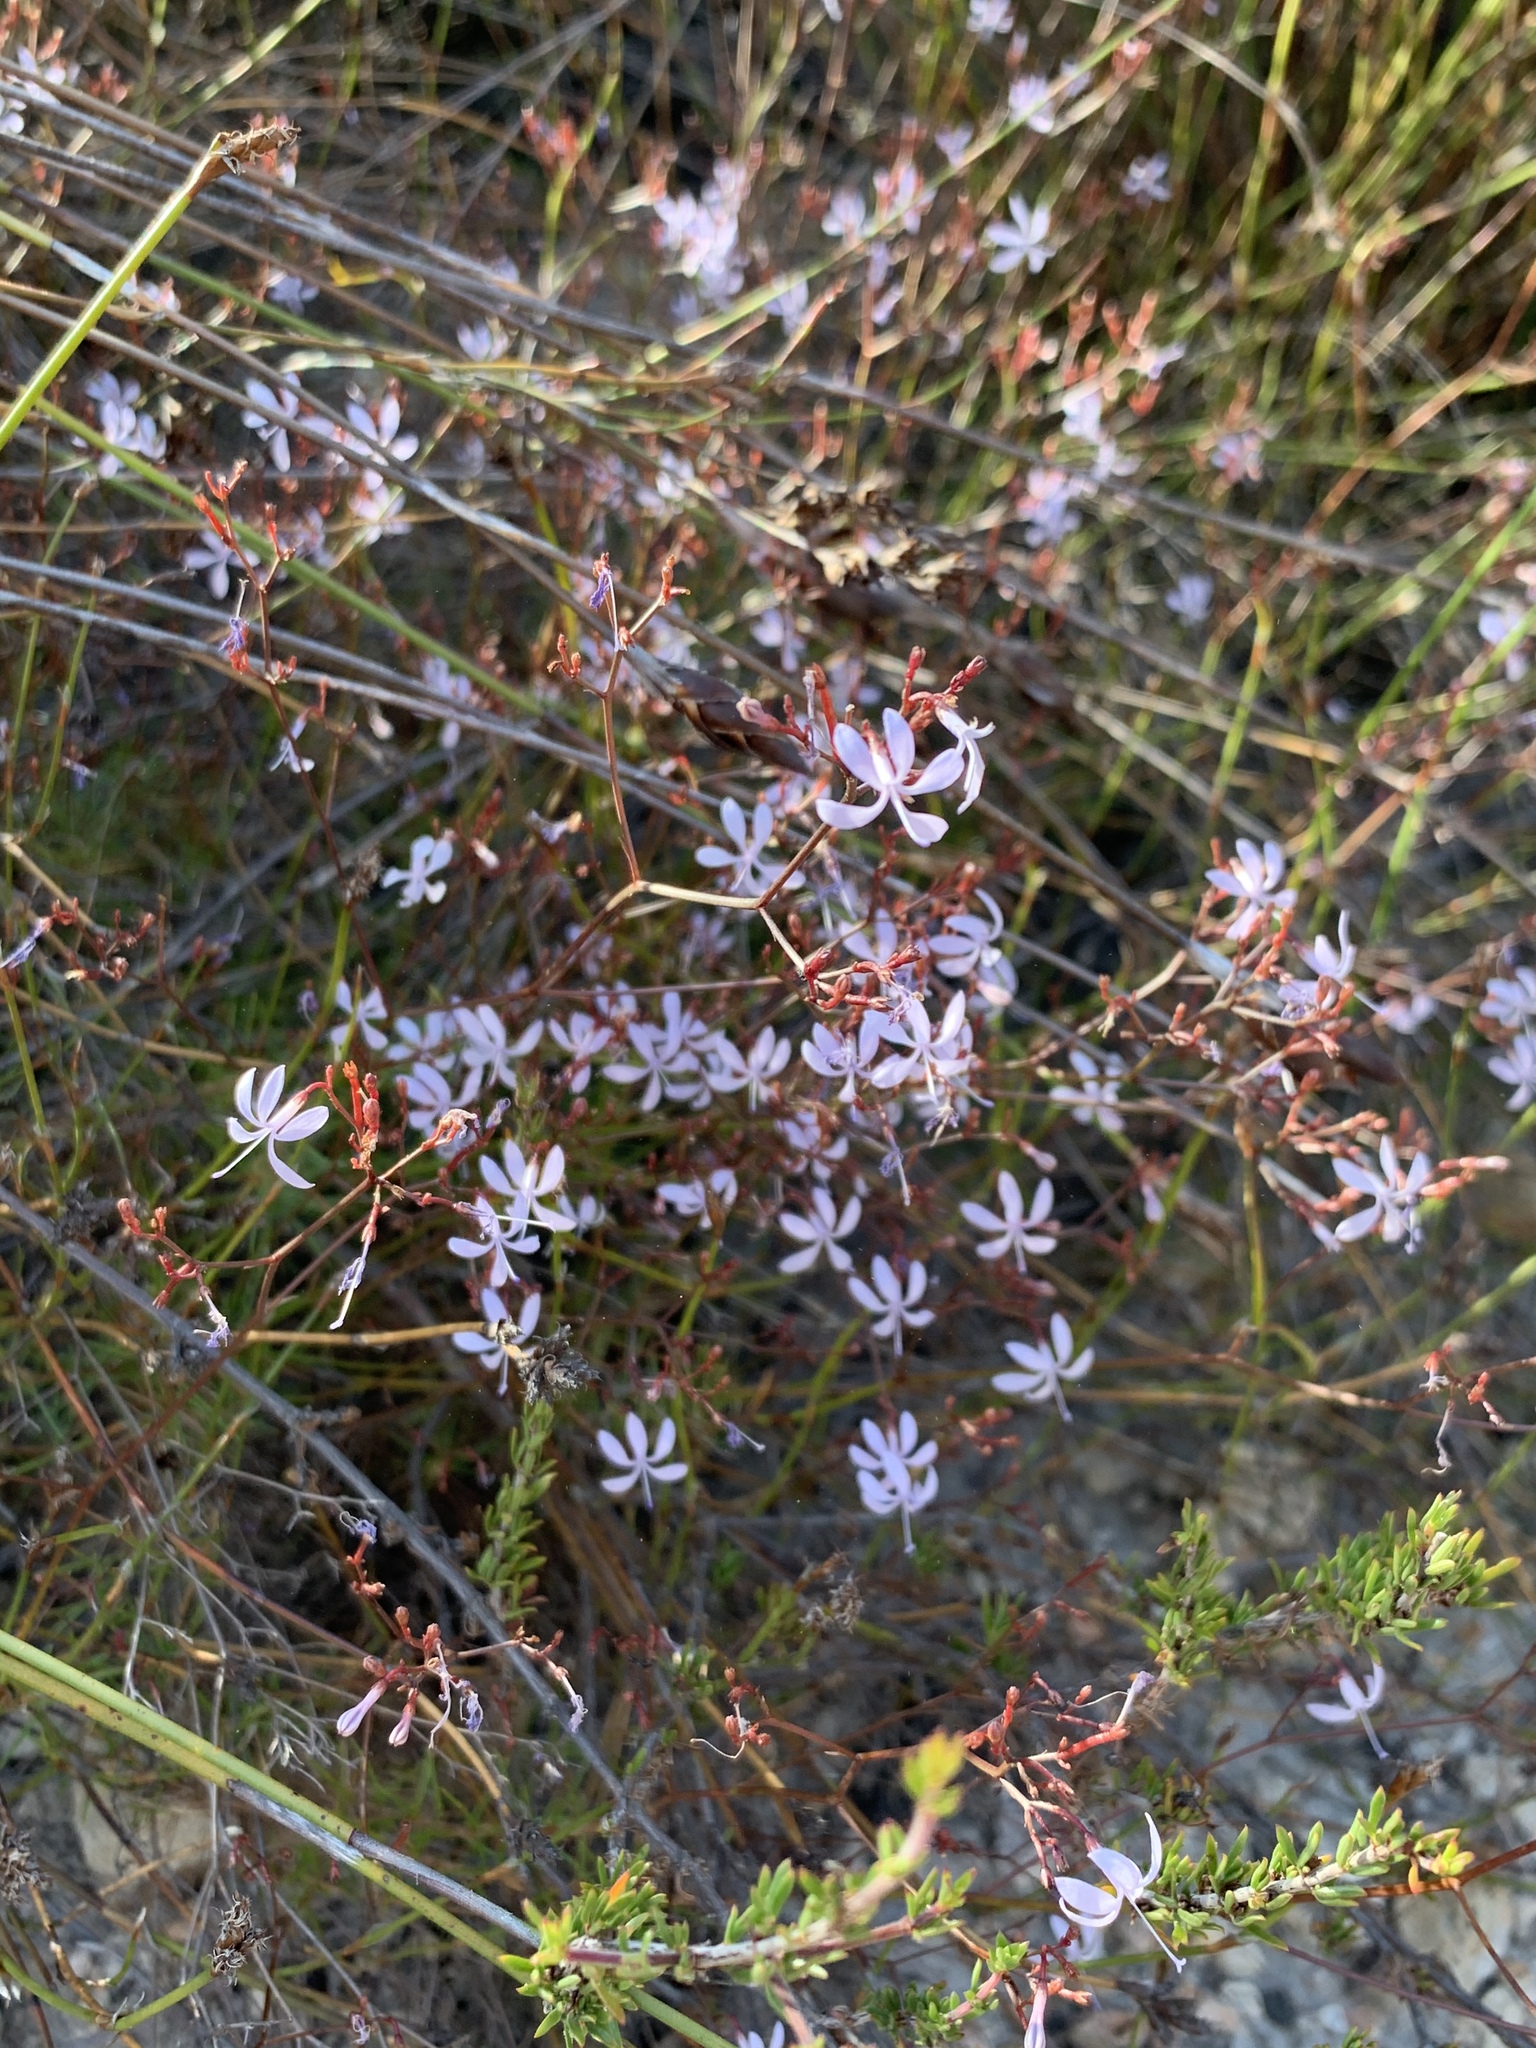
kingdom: Plantae
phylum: Tracheophyta
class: Magnoliopsida
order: Asterales
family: Campanulaceae
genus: Prismatocarpus
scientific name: Prismatocarpus diffusus
